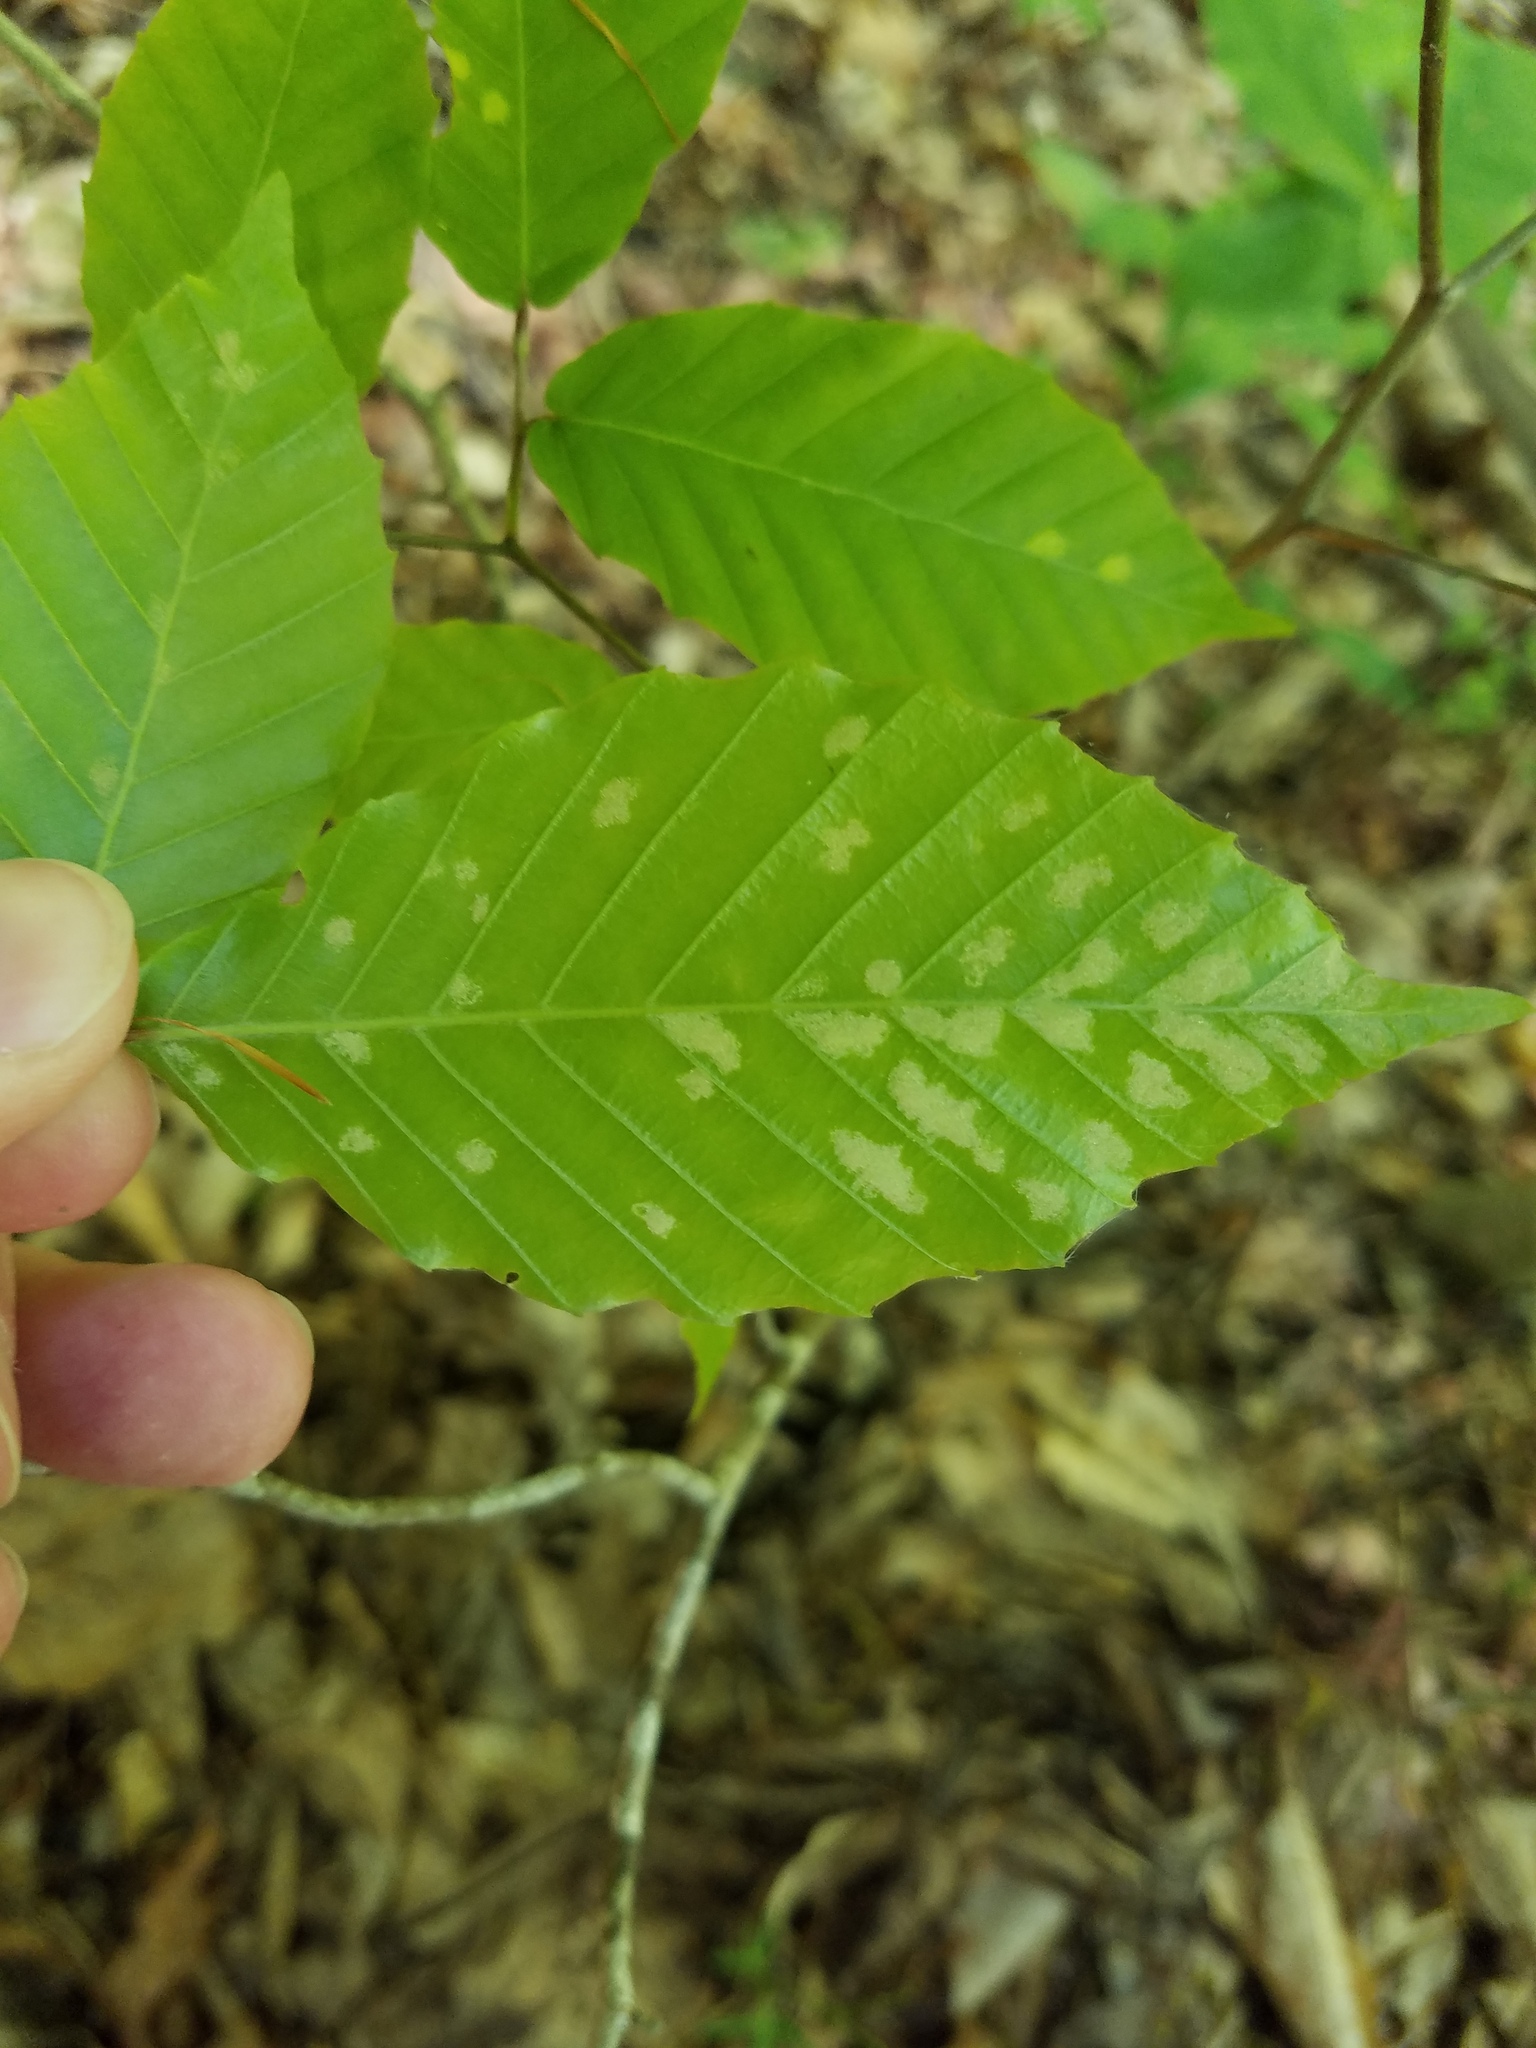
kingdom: Animalia
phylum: Arthropoda
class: Arachnida
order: Trombidiformes
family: Eriophyidae
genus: Acalitus
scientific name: Acalitus
